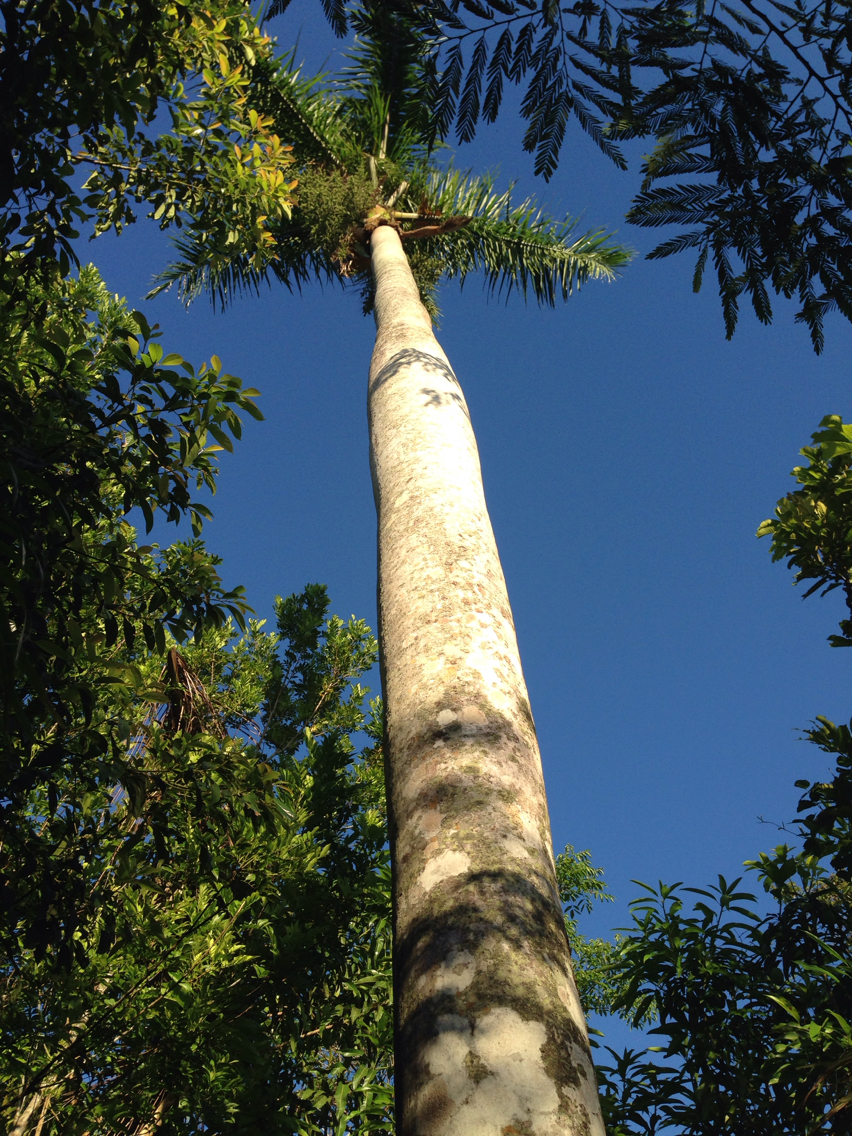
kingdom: Plantae
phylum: Tracheophyta
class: Liliopsida
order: Arecales
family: Arecaceae
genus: Roystonea
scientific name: Roystonea regia
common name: Florida royal palm
